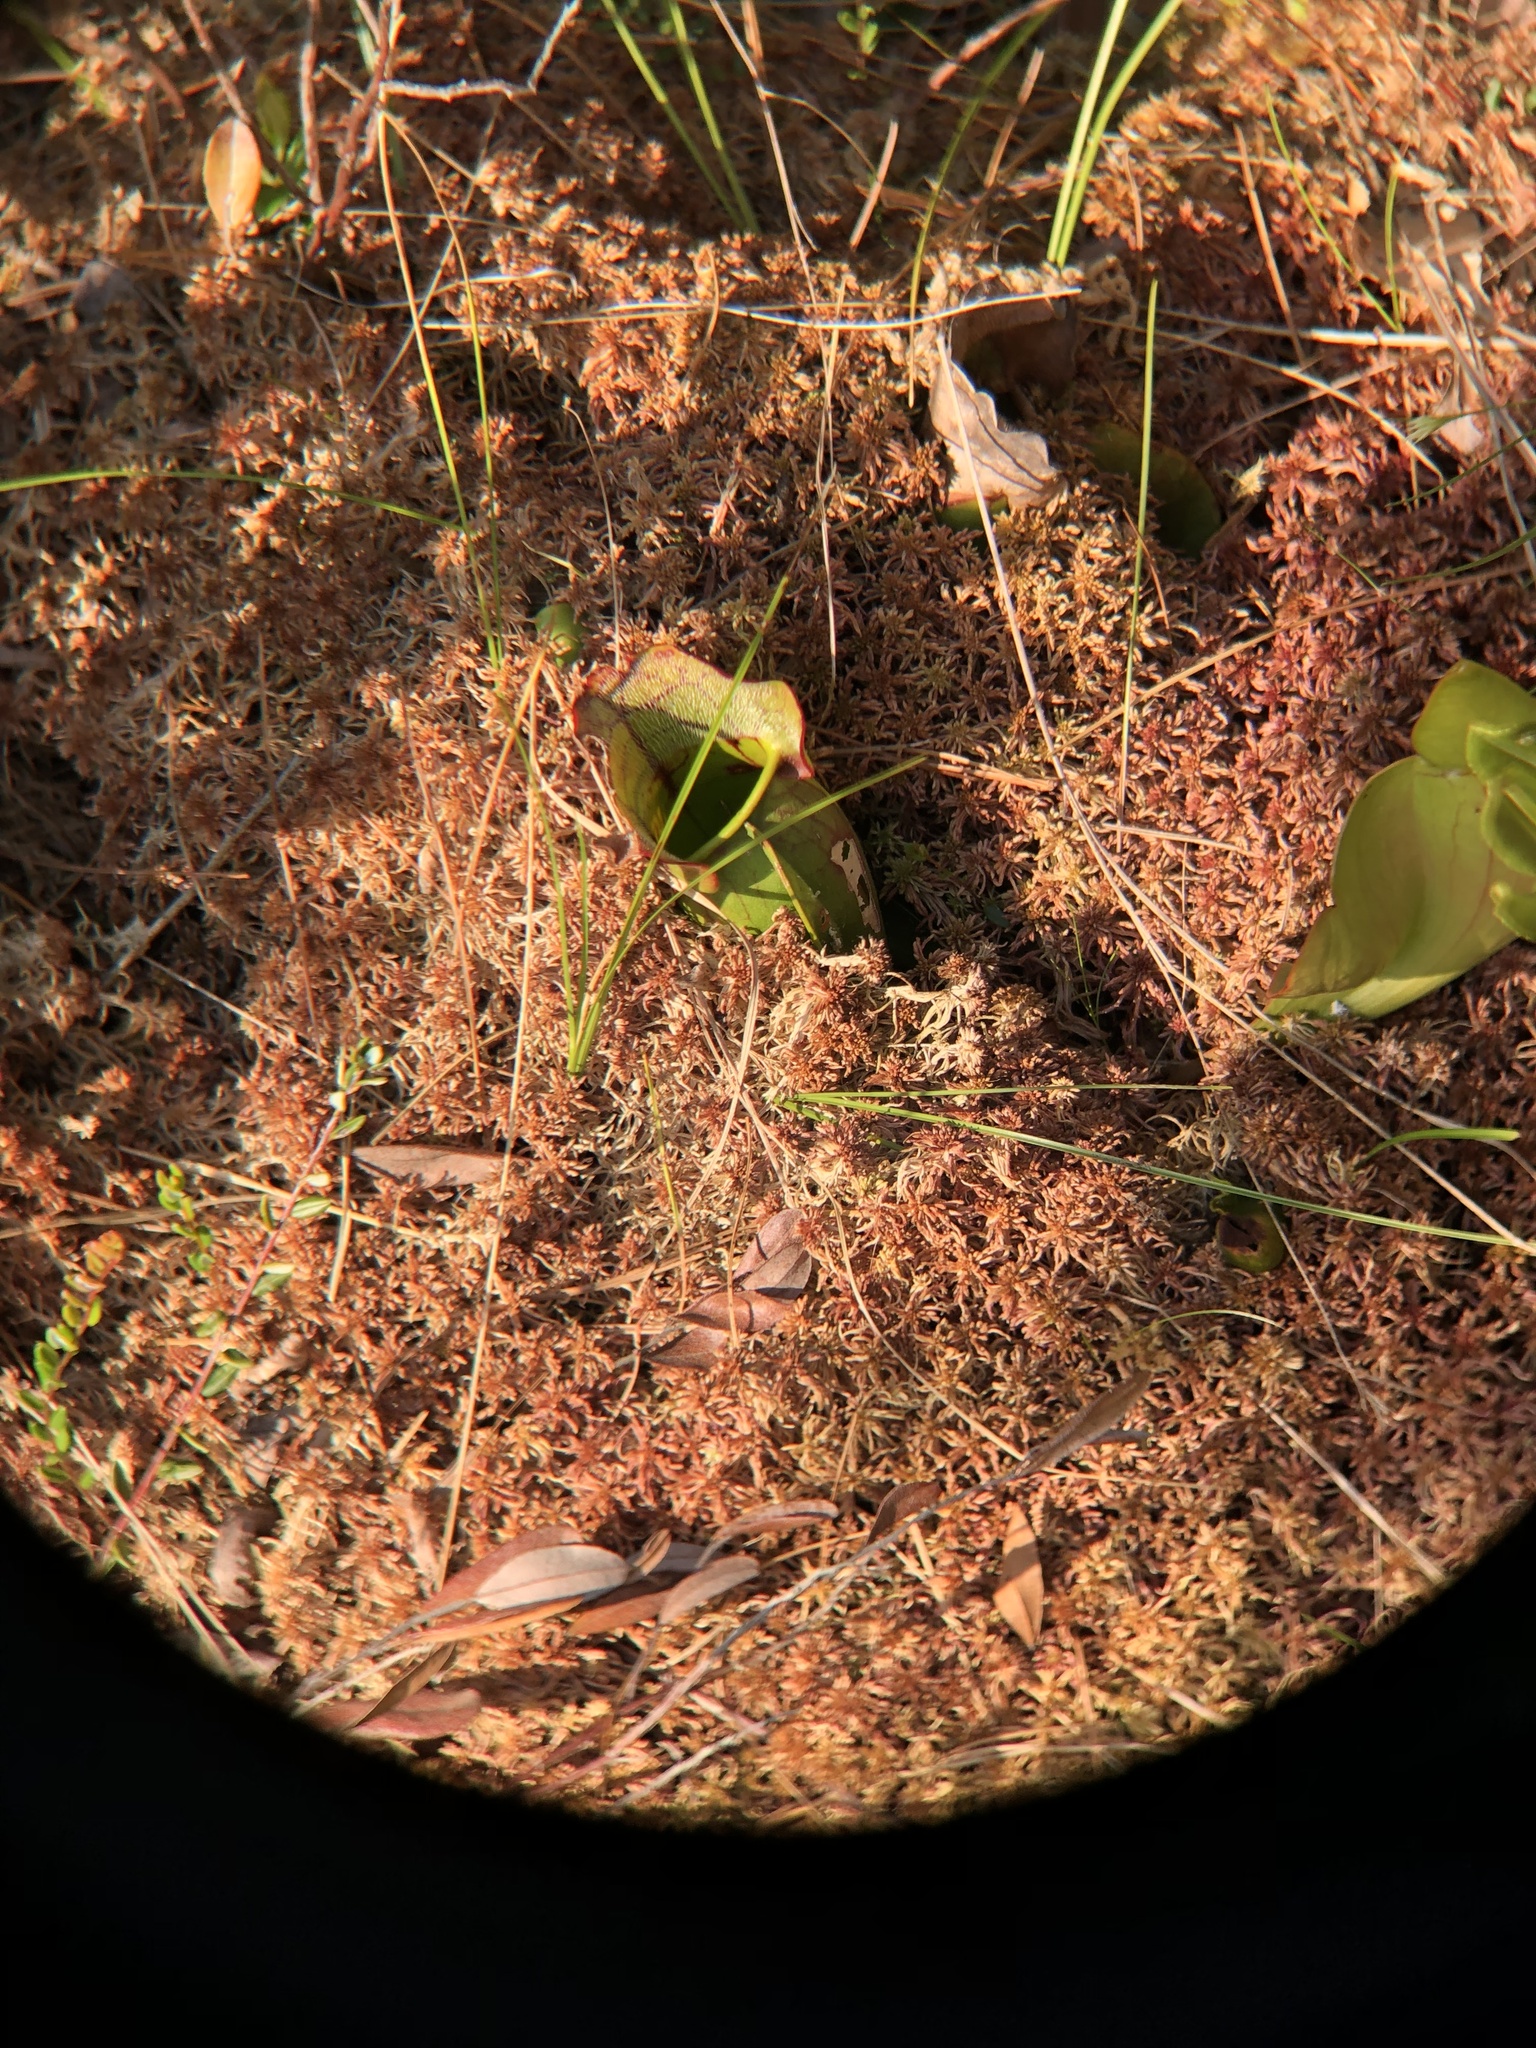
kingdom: Plantae
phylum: Tracheophyta
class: Magnoliopsida
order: Ericales
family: Sarraceniaceae
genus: Sarracenia
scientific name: Sarracenia purpurea
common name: Pitcherplant
